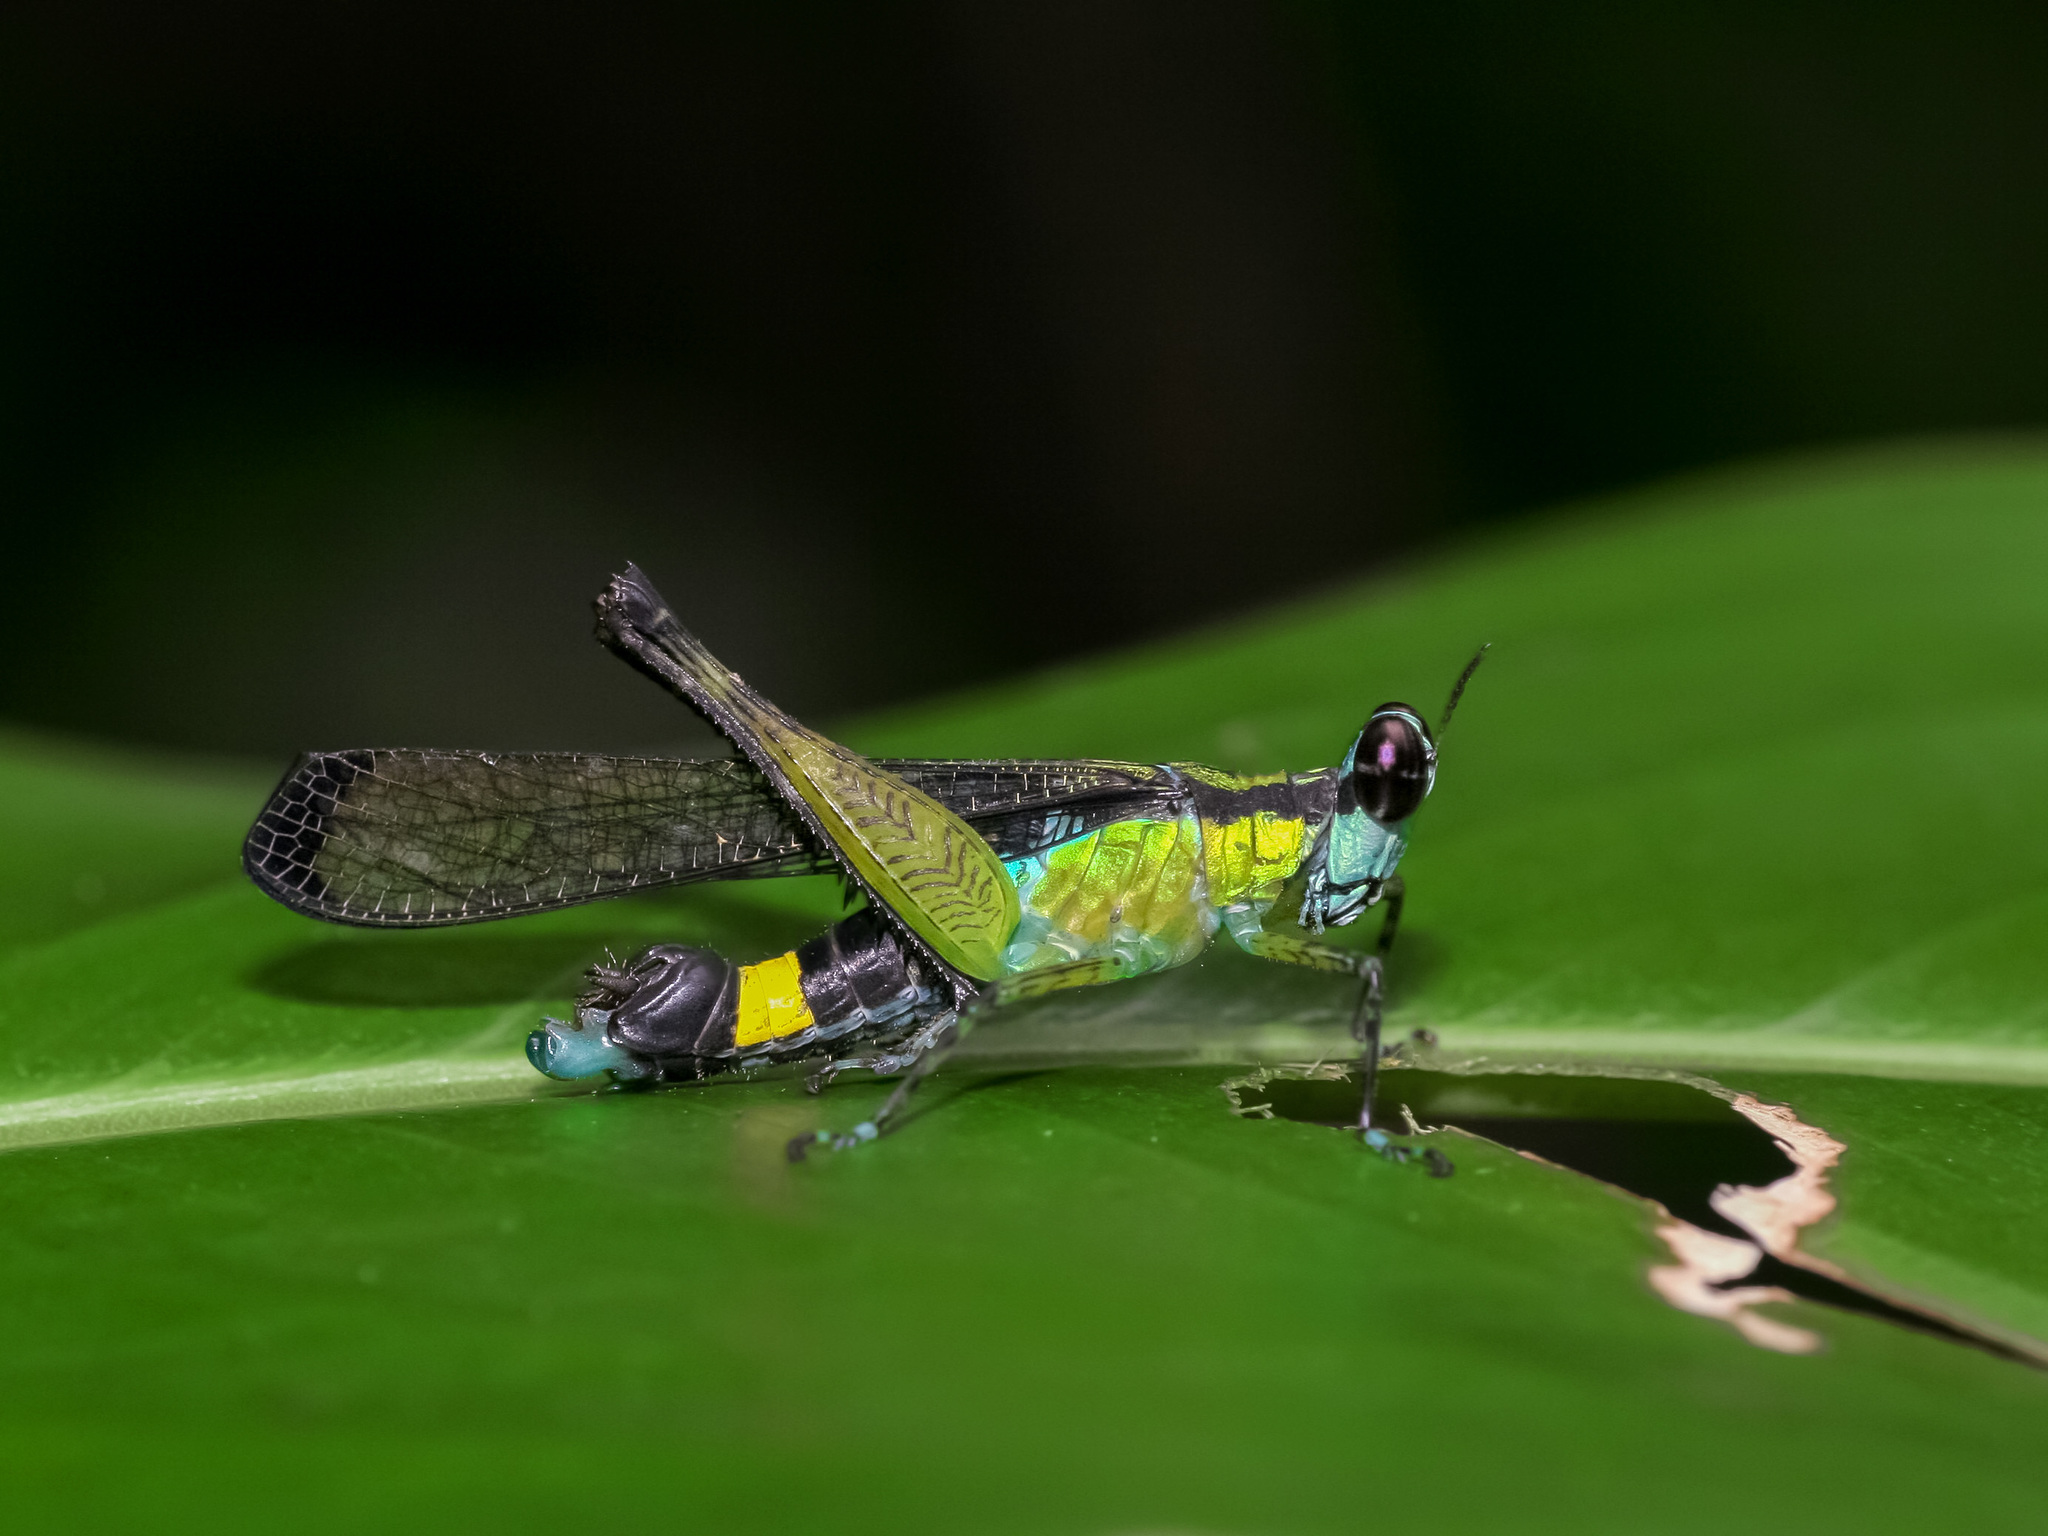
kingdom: Animalia
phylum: Arthropoda
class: Insecta
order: Orthoptera
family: Chorotypidae
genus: Erucius
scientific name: Erucius apicalis
